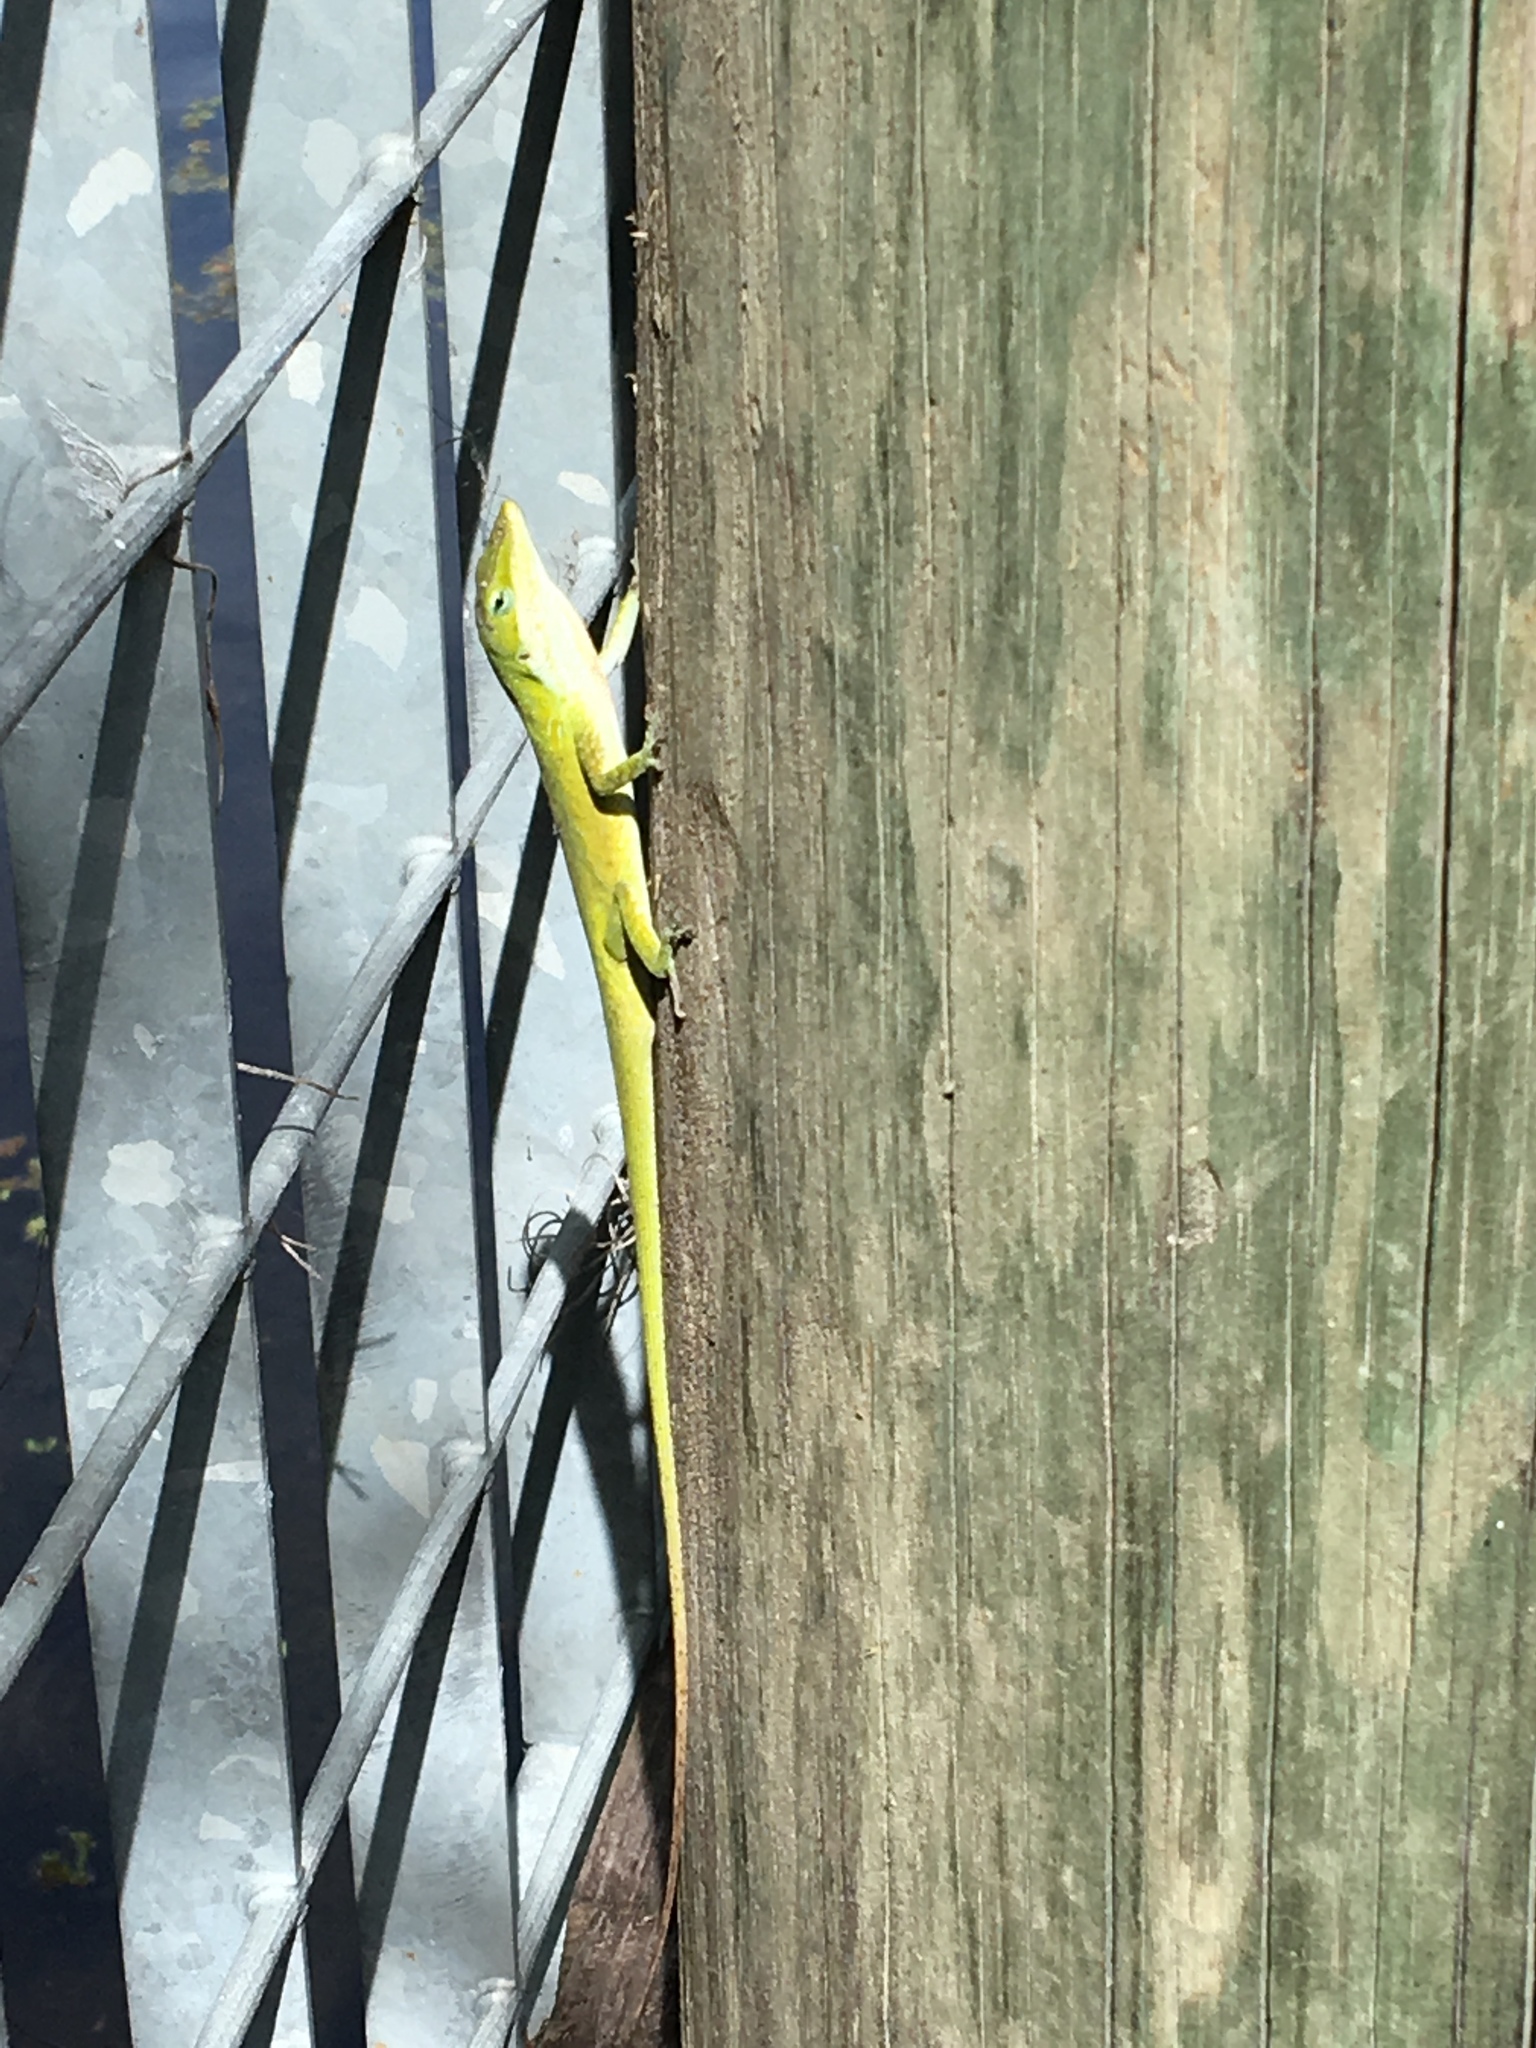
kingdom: Animalia
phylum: Chordata
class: Squamata
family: Dactyloidae
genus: Anolis
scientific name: Anolis carolinensis
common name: Green anole
